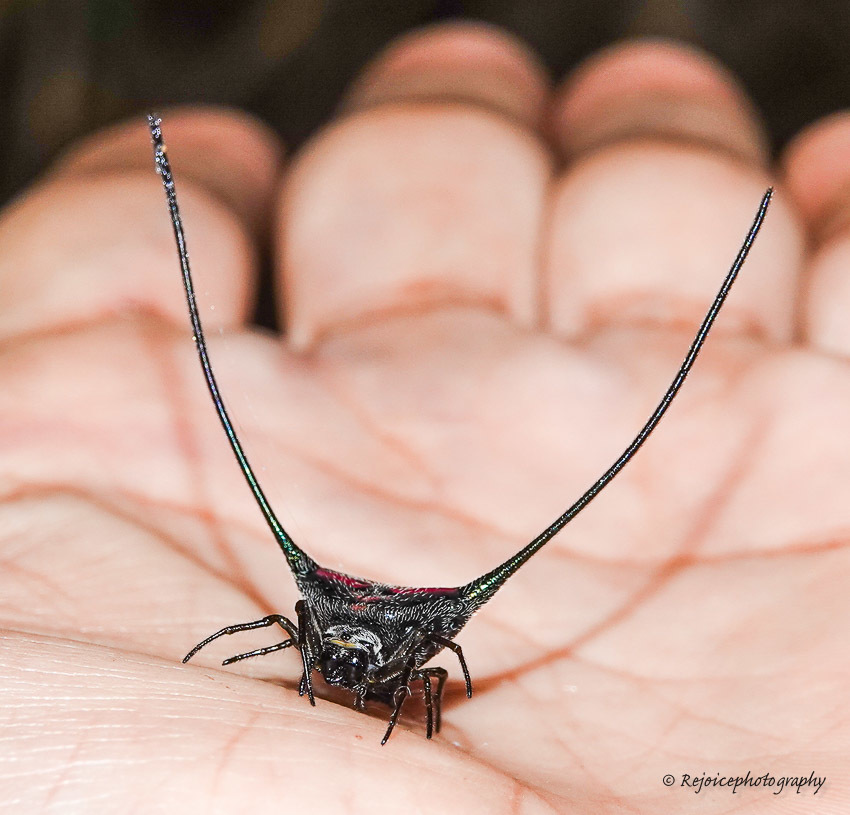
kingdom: Animalia
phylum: Arthropoda
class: Arachnida
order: Araneae
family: Araneidae
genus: Macracantha
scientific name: Macracantha arcuata
